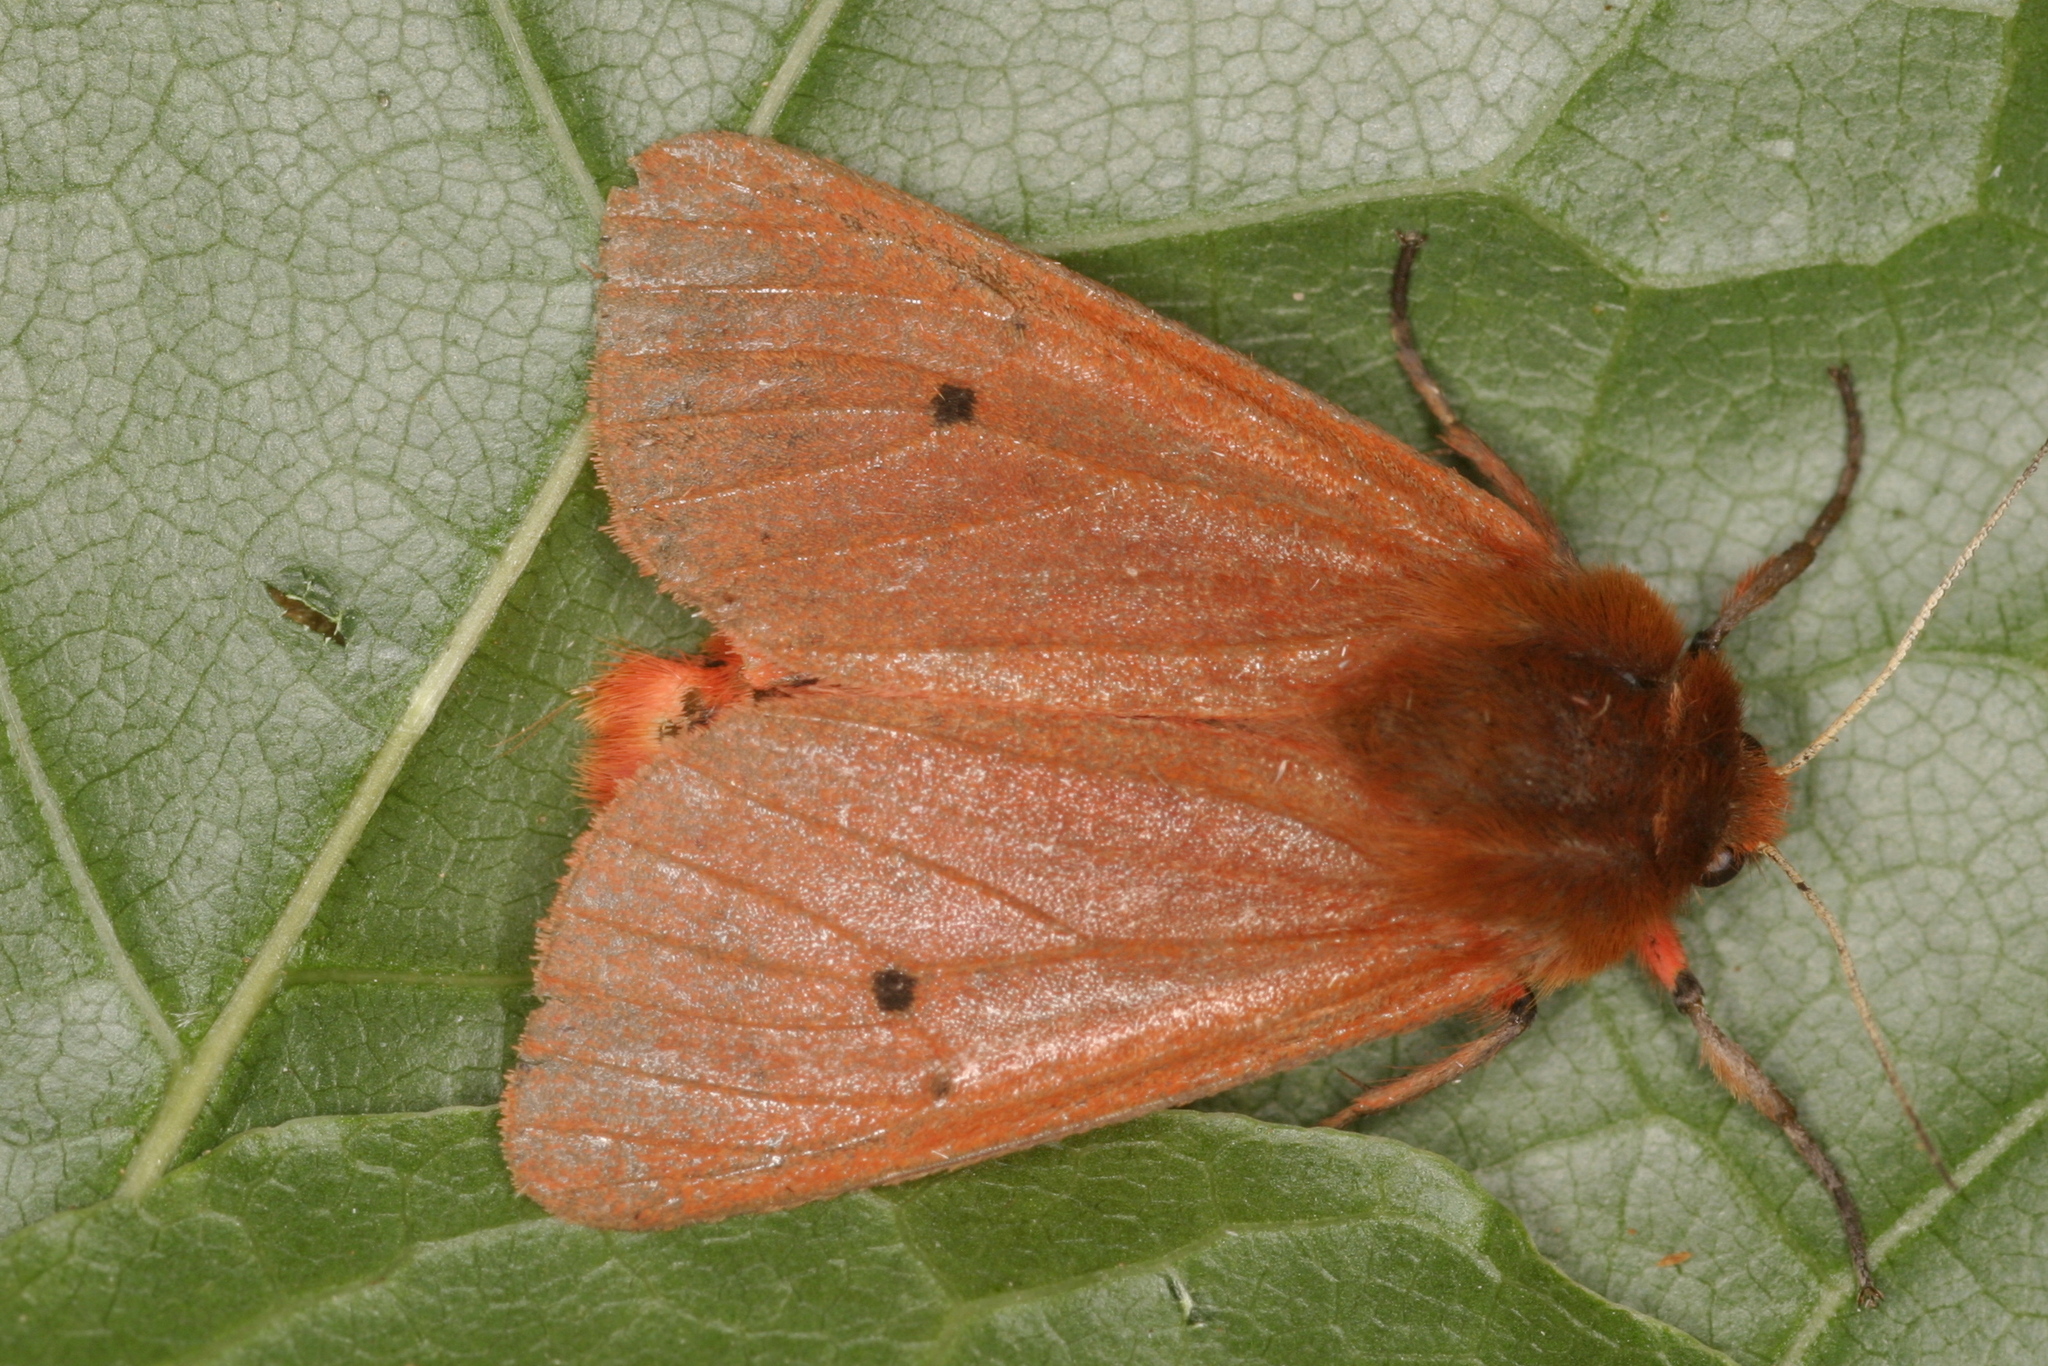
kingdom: Animalia
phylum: Arthropoda
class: Insecta
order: Lepidoptera
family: Erebidae
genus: Phragmatobia
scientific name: Phragmatobia fuliginosa
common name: Ruby tiger
